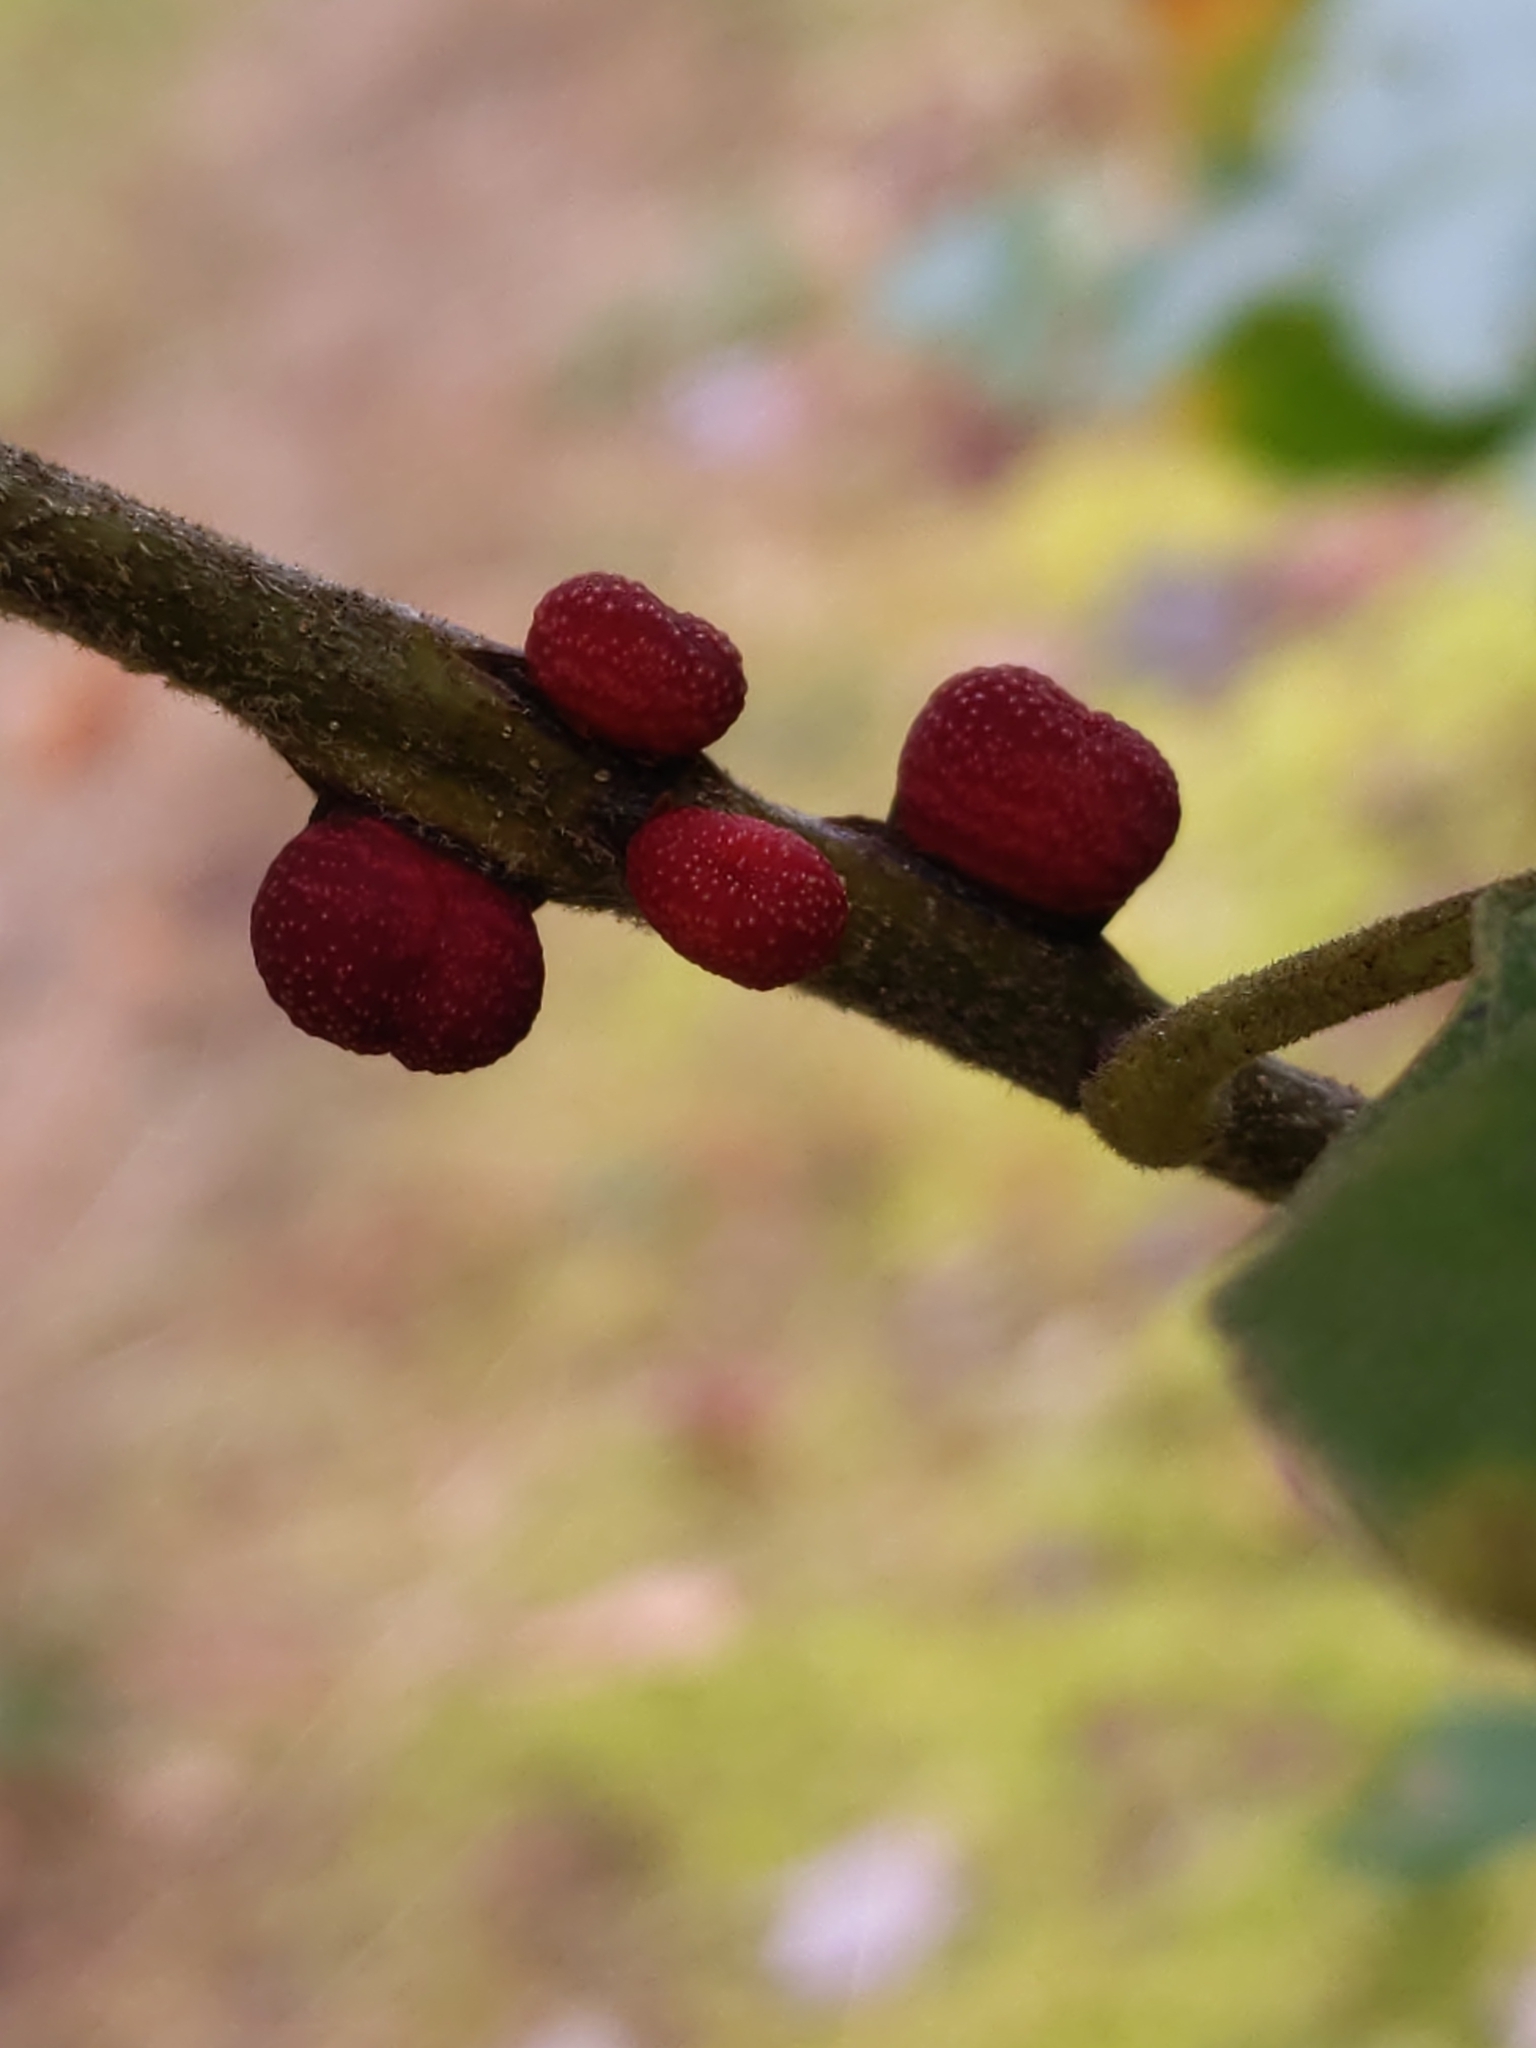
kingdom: Animalia
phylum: Arthropoda
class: Insecta
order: Hymenoptera
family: Cynipidae
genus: Kokkocynips
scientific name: Kokkocynips imbricariae
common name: Banded bullet gall wasp
